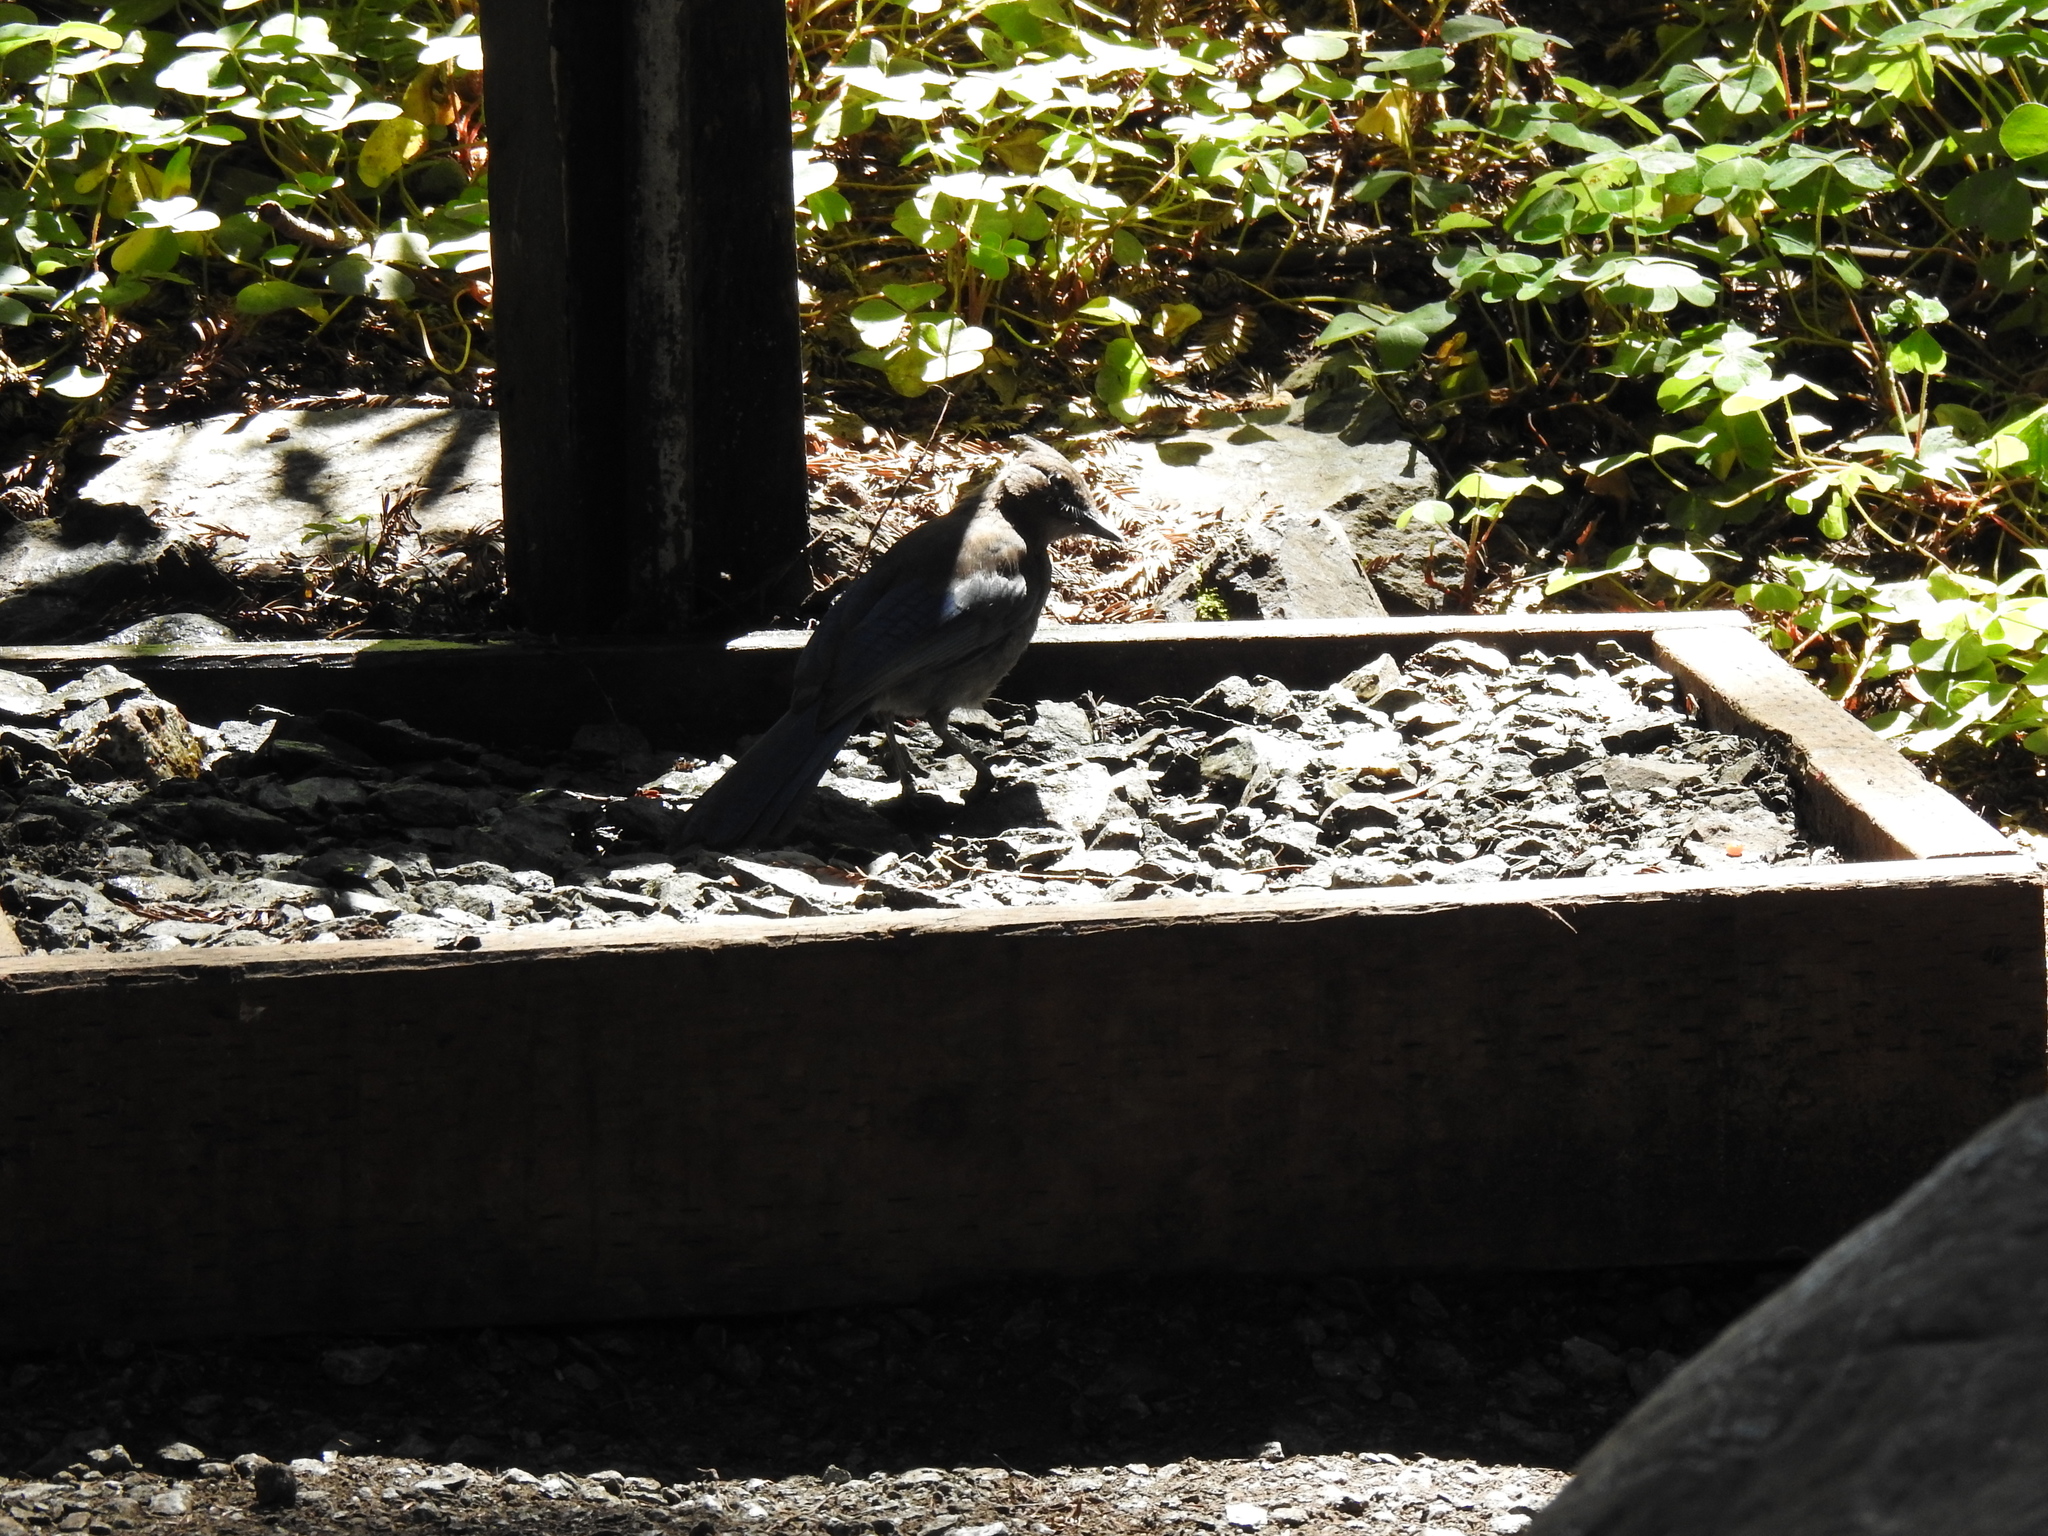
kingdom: Animalia
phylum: Chordata
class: Aves
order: Passeriformes
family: Corvidae
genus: Cyanocitta
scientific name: Cyanocitta stelleri
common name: Steller's jay
